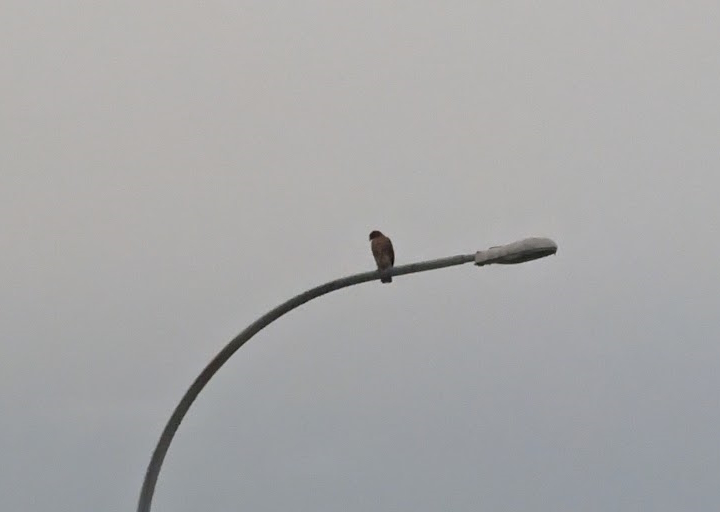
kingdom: Animalia
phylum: Chordata
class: Aves
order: Accipitriformes
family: Accipitridae
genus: Buteo
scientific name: Buteo jamaicensis
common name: Red-tailed hawk
